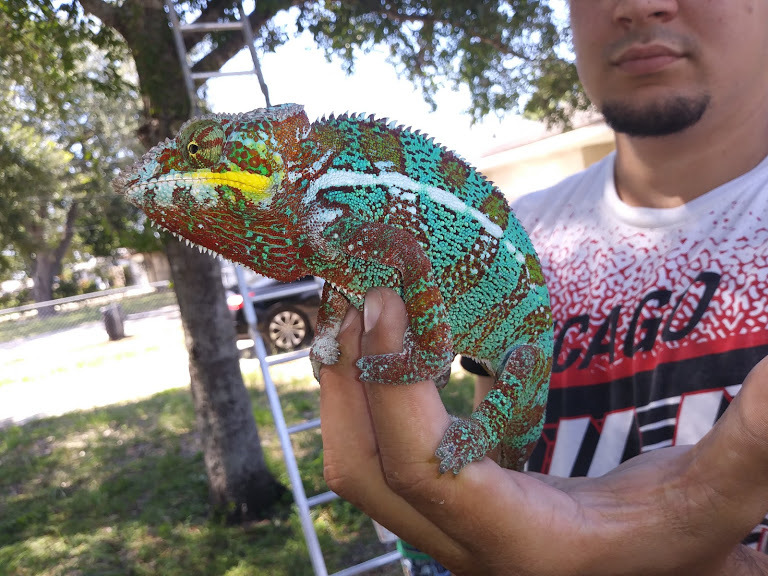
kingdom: Animalia
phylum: Chordata
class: Squamata
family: Chamaeleonidae
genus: Furcifer
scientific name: Furcifer pardalis
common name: Panther chameleon
